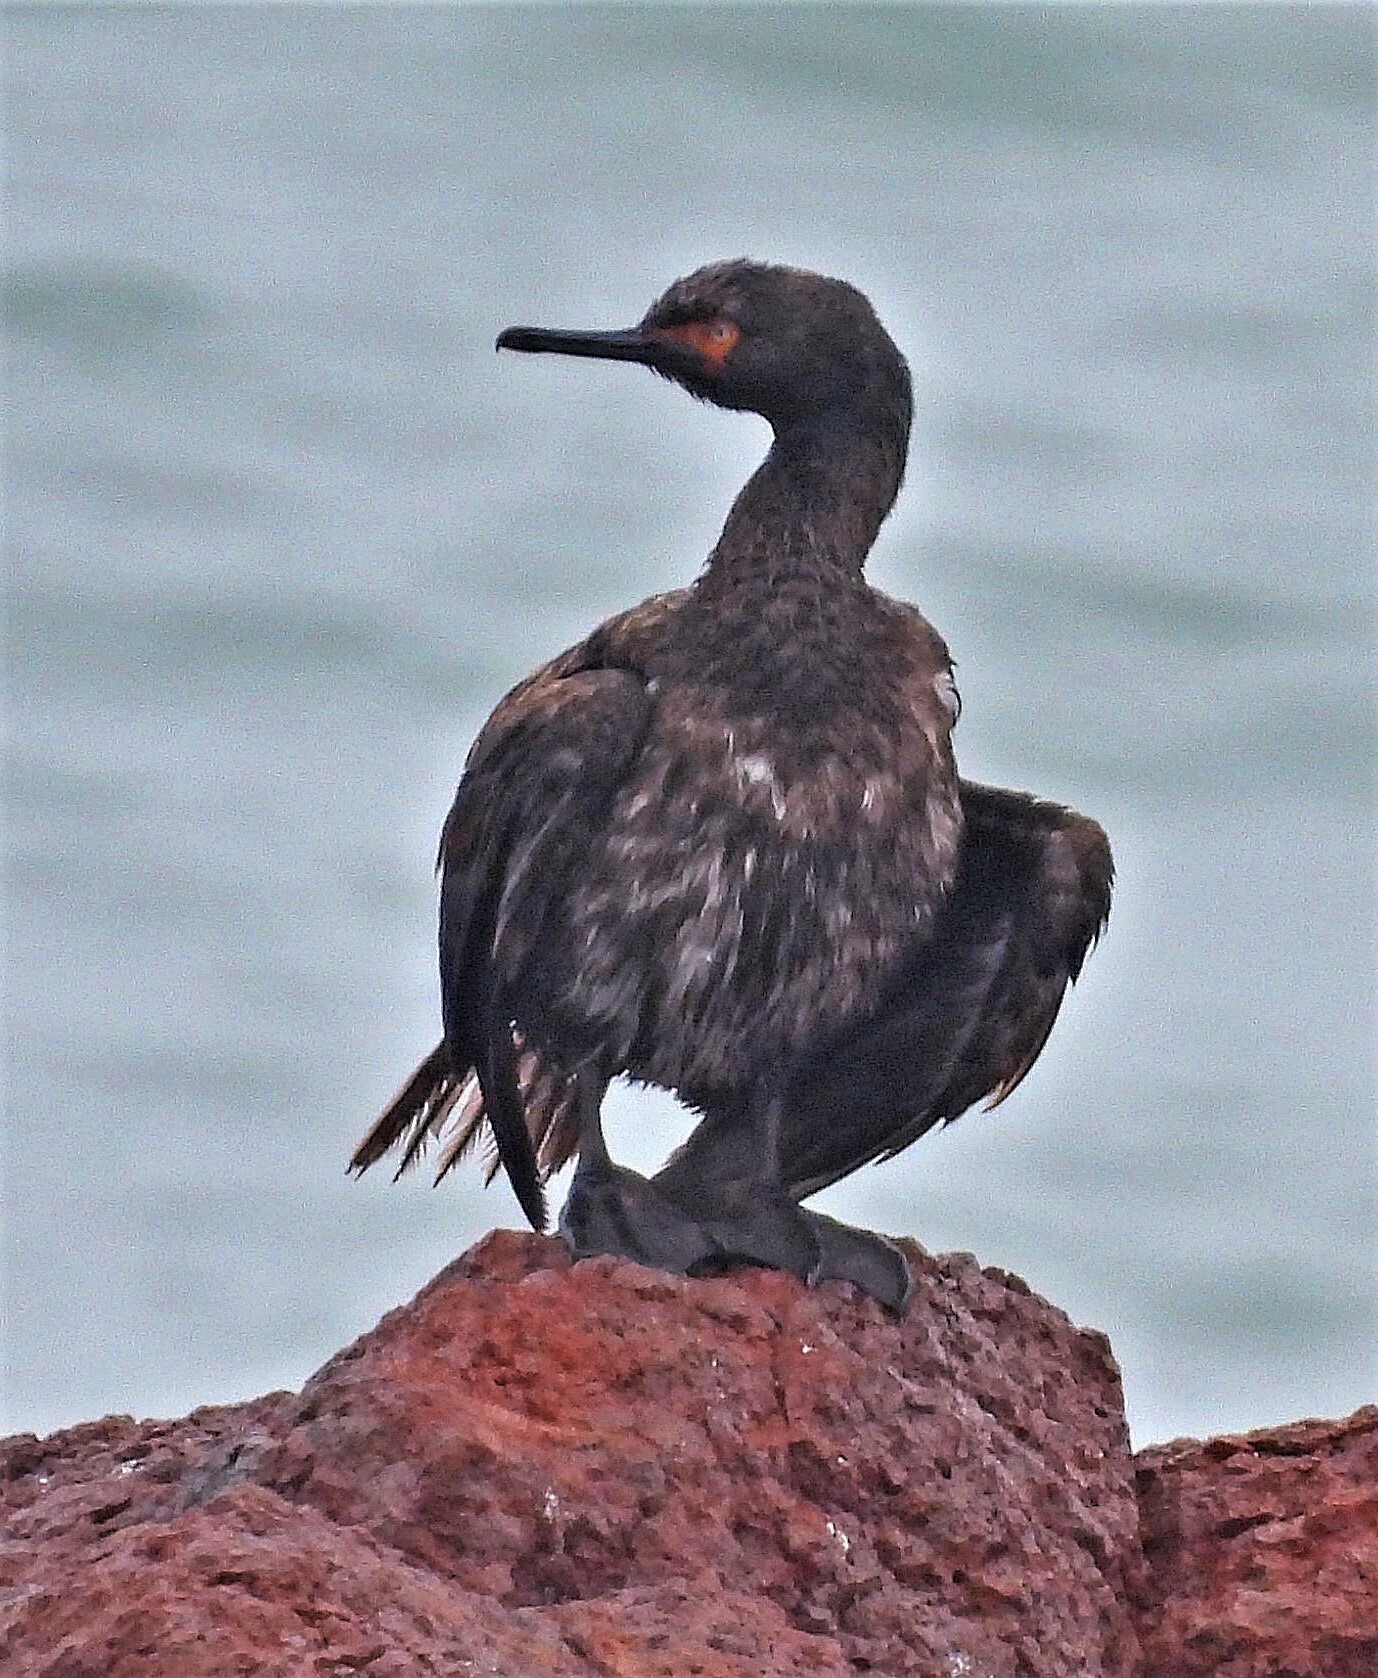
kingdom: Animalia
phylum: Chordata
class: Aves
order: Suliformes
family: Phalacrocoracidae
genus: Phalacrocorax
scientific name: Phalacrocorax magellanicus
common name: Rock shag
